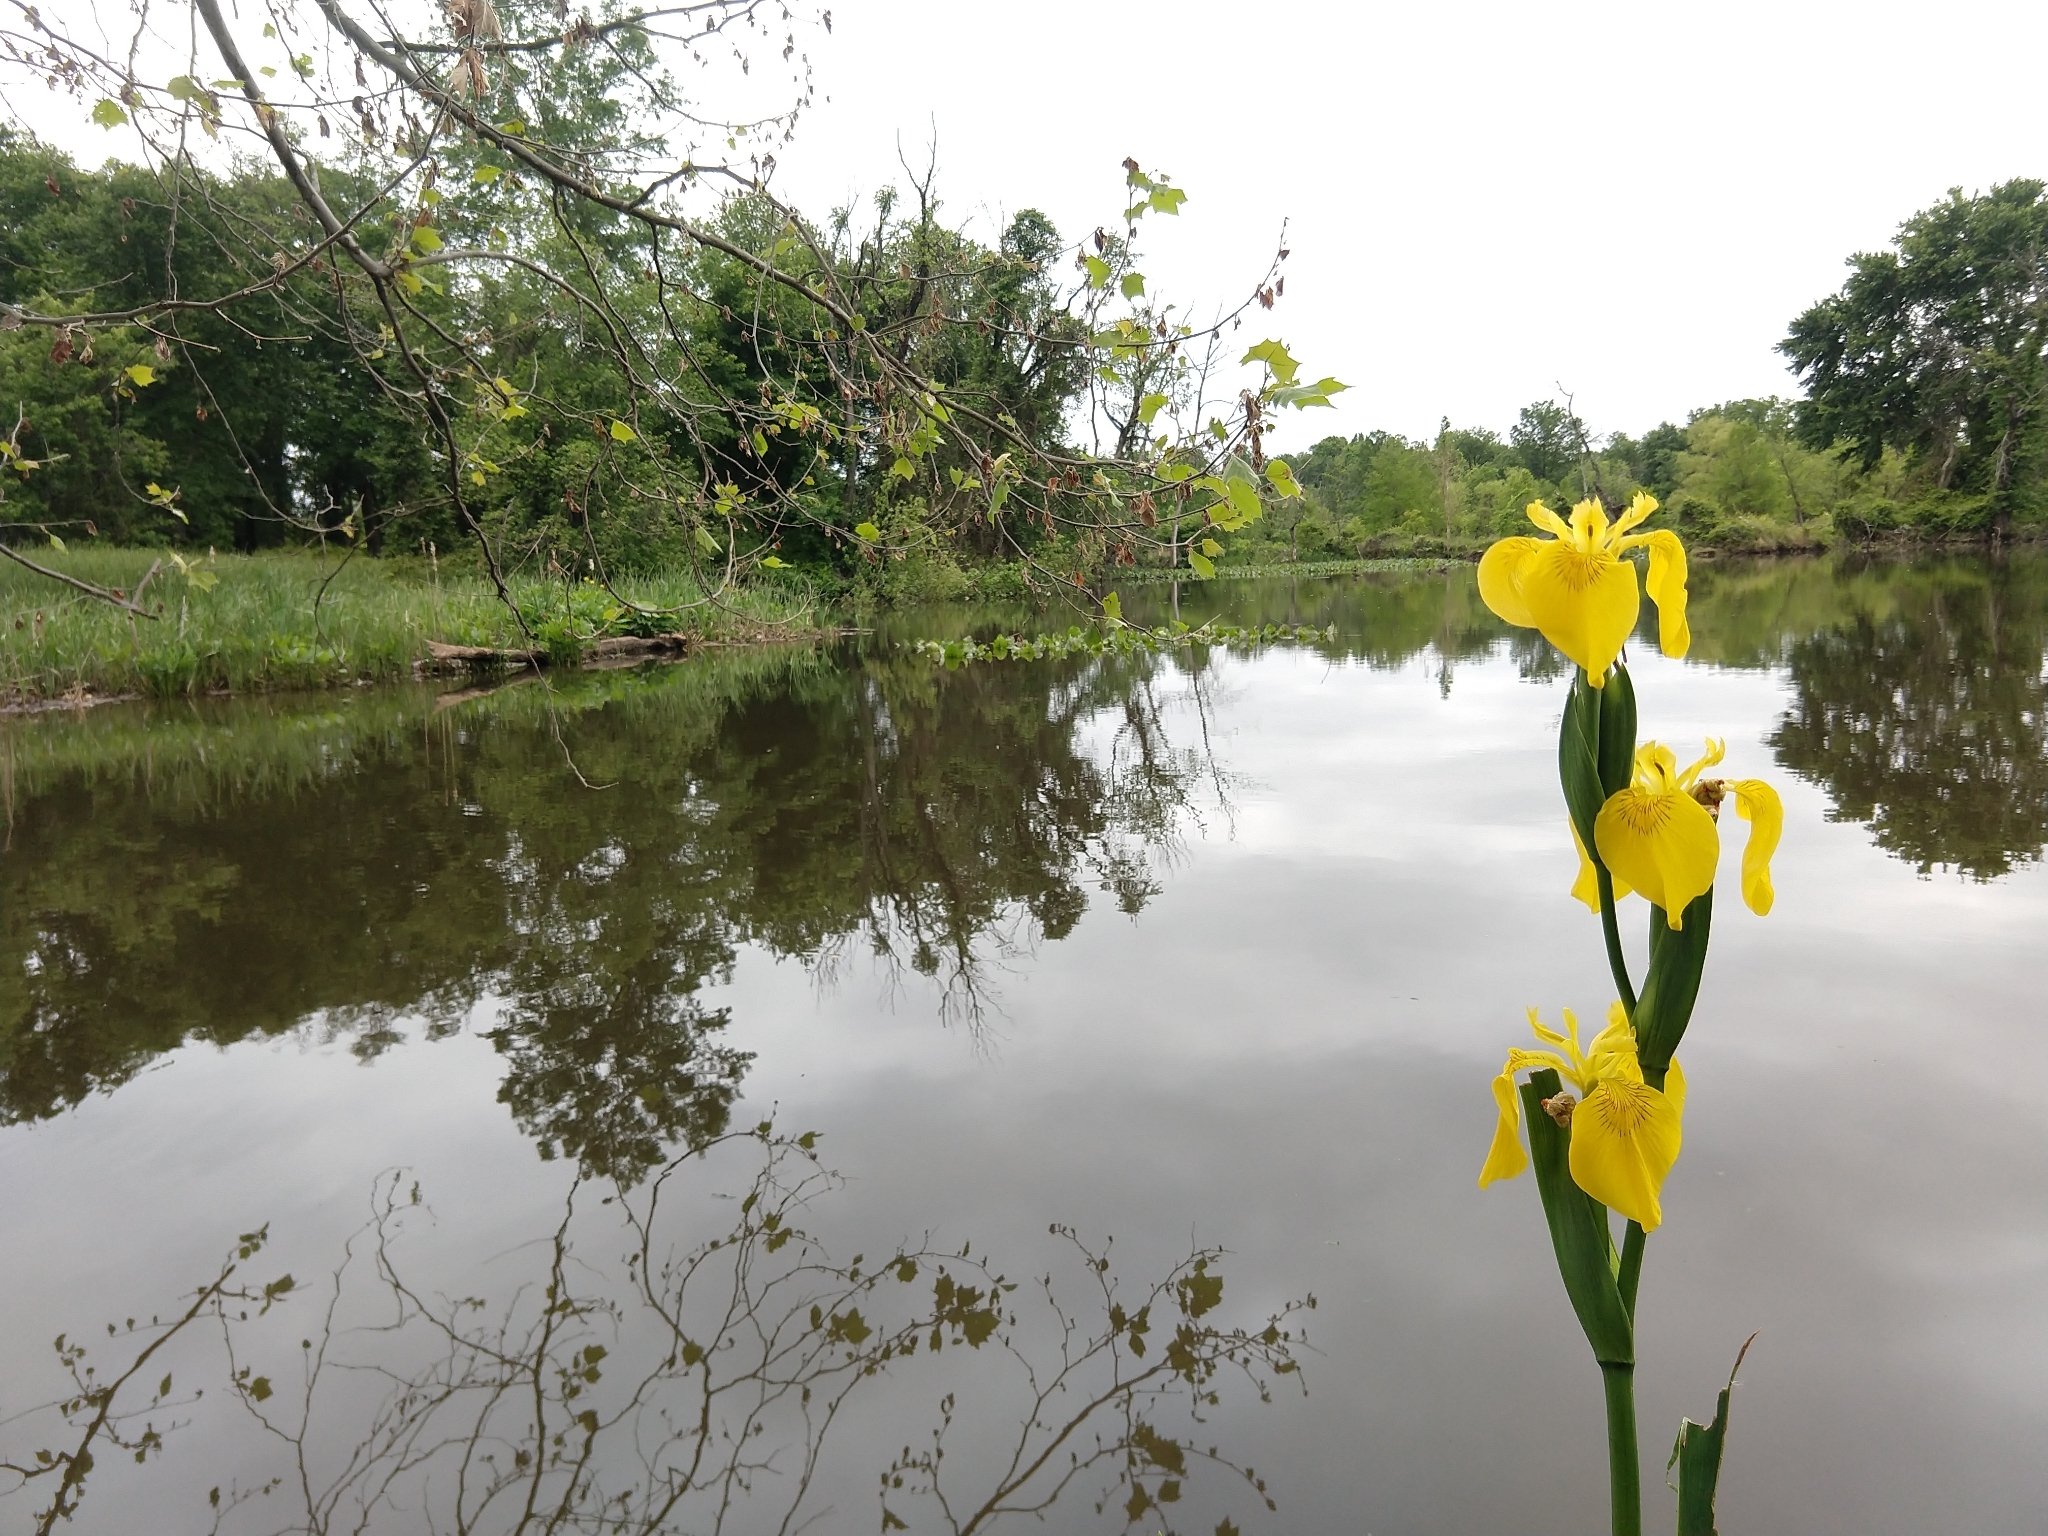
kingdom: Plantae
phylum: Tracheophyta
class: Liliopsida
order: Asparagales
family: Iridaceae
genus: Iris
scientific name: Iris pseudacorus
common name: Yellow flag
